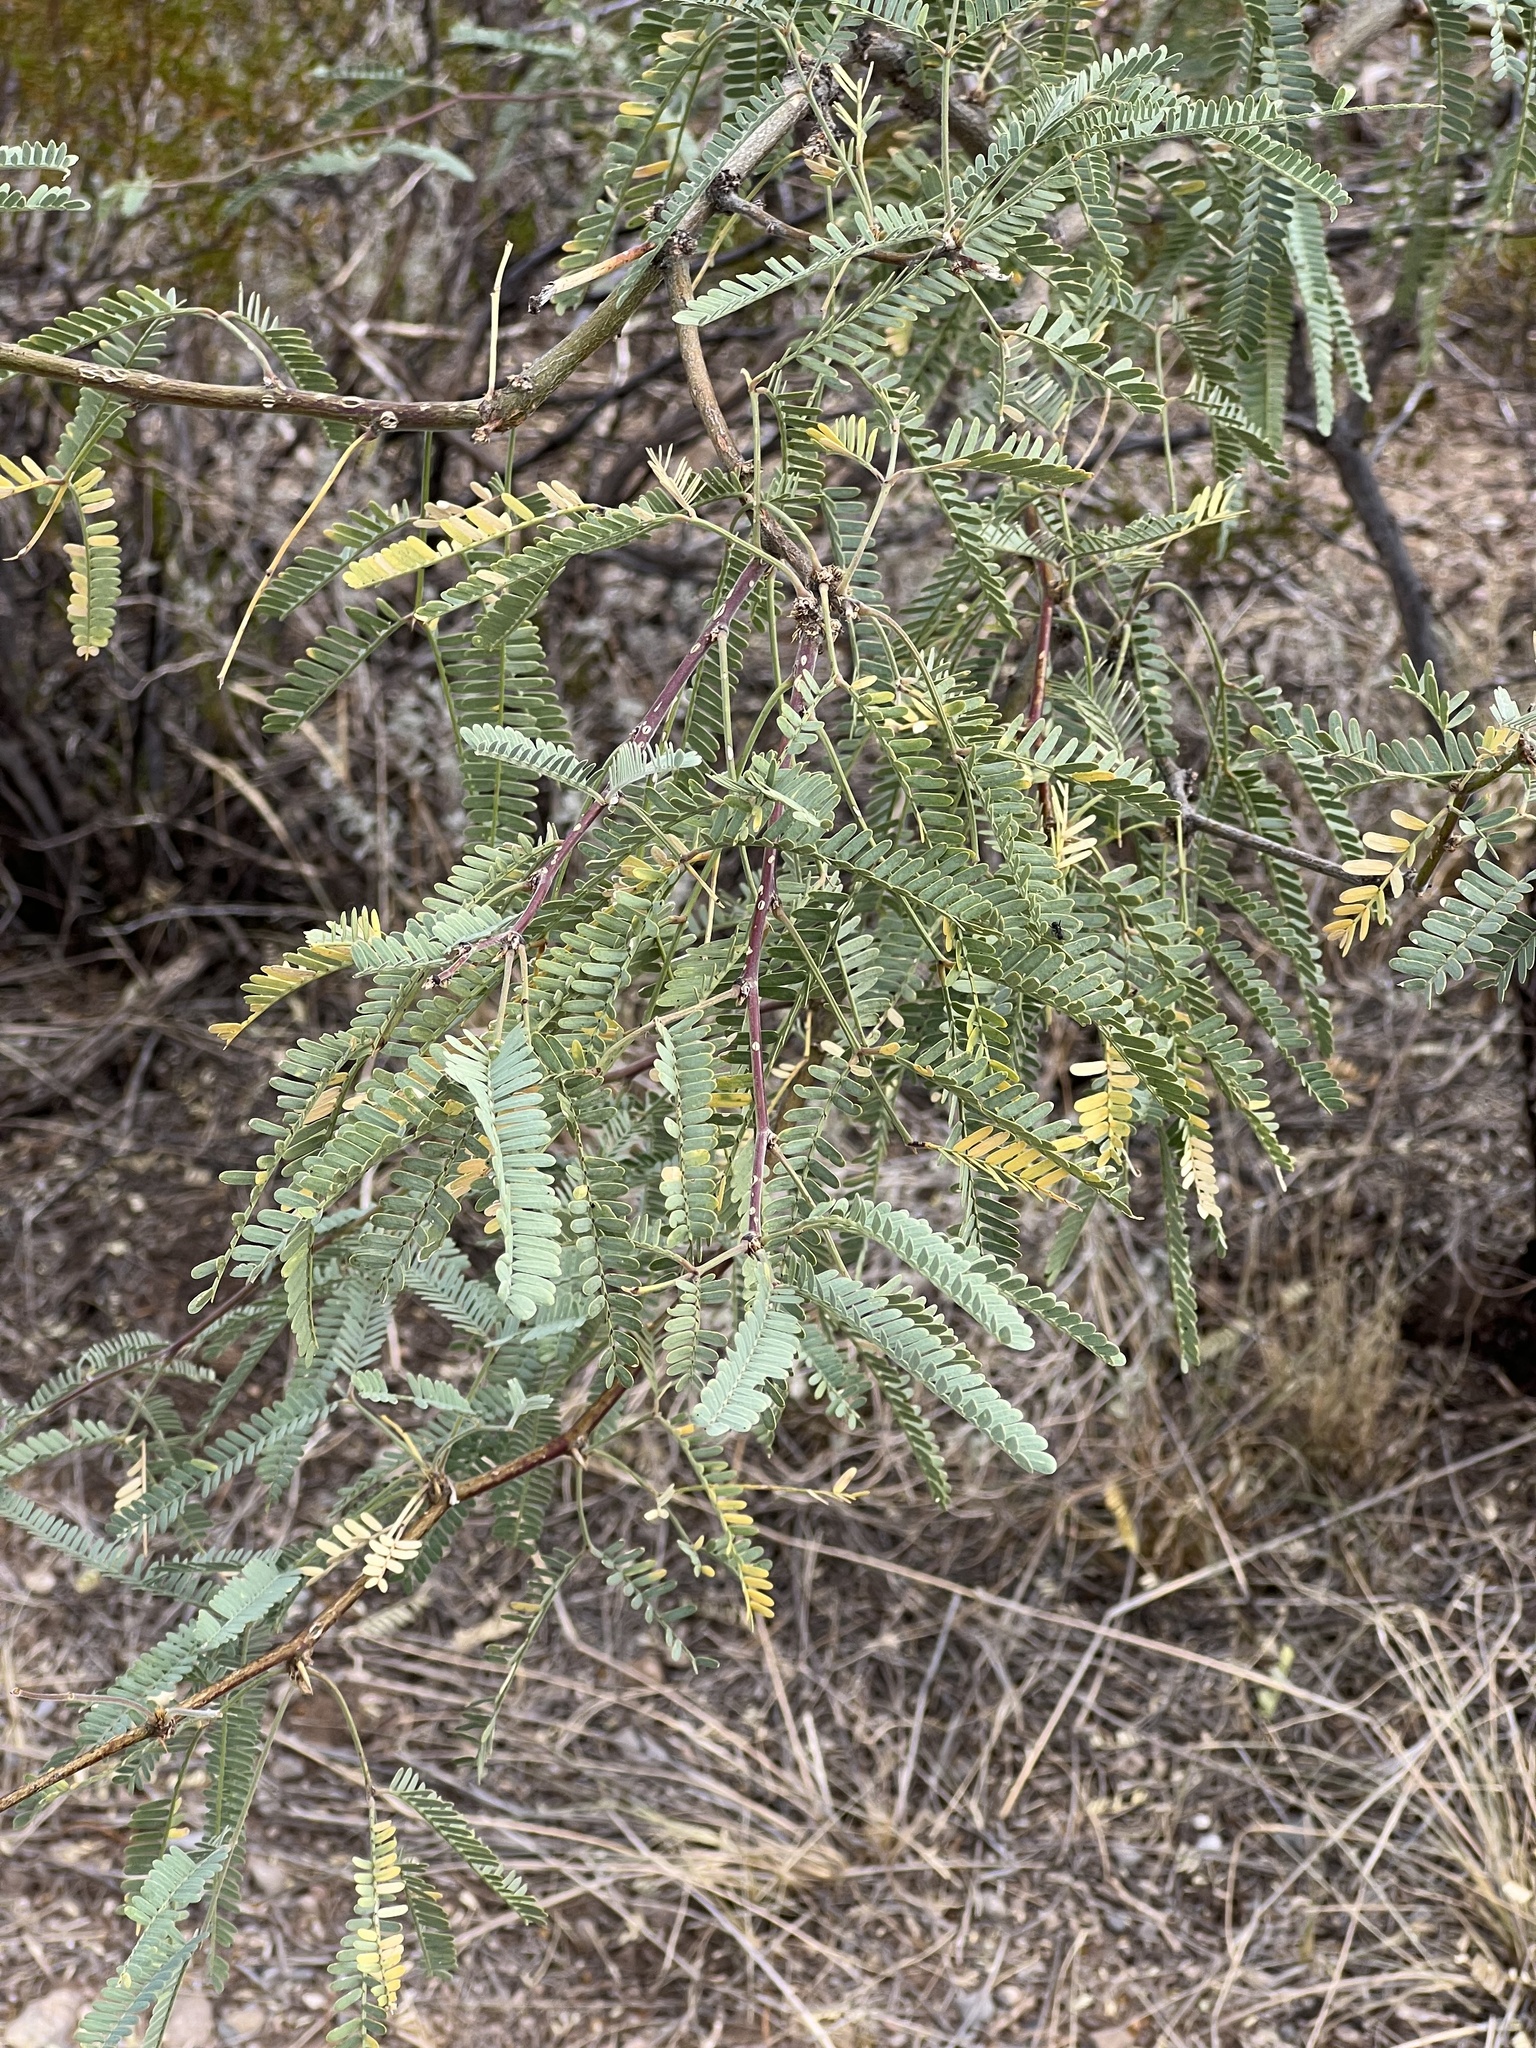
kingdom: Plantae
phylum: Tracheophyta
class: Magnoliopsida
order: Fabales
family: Fabaceae
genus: Prosopis
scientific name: Prosopis velutina
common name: Velvet mesquite
